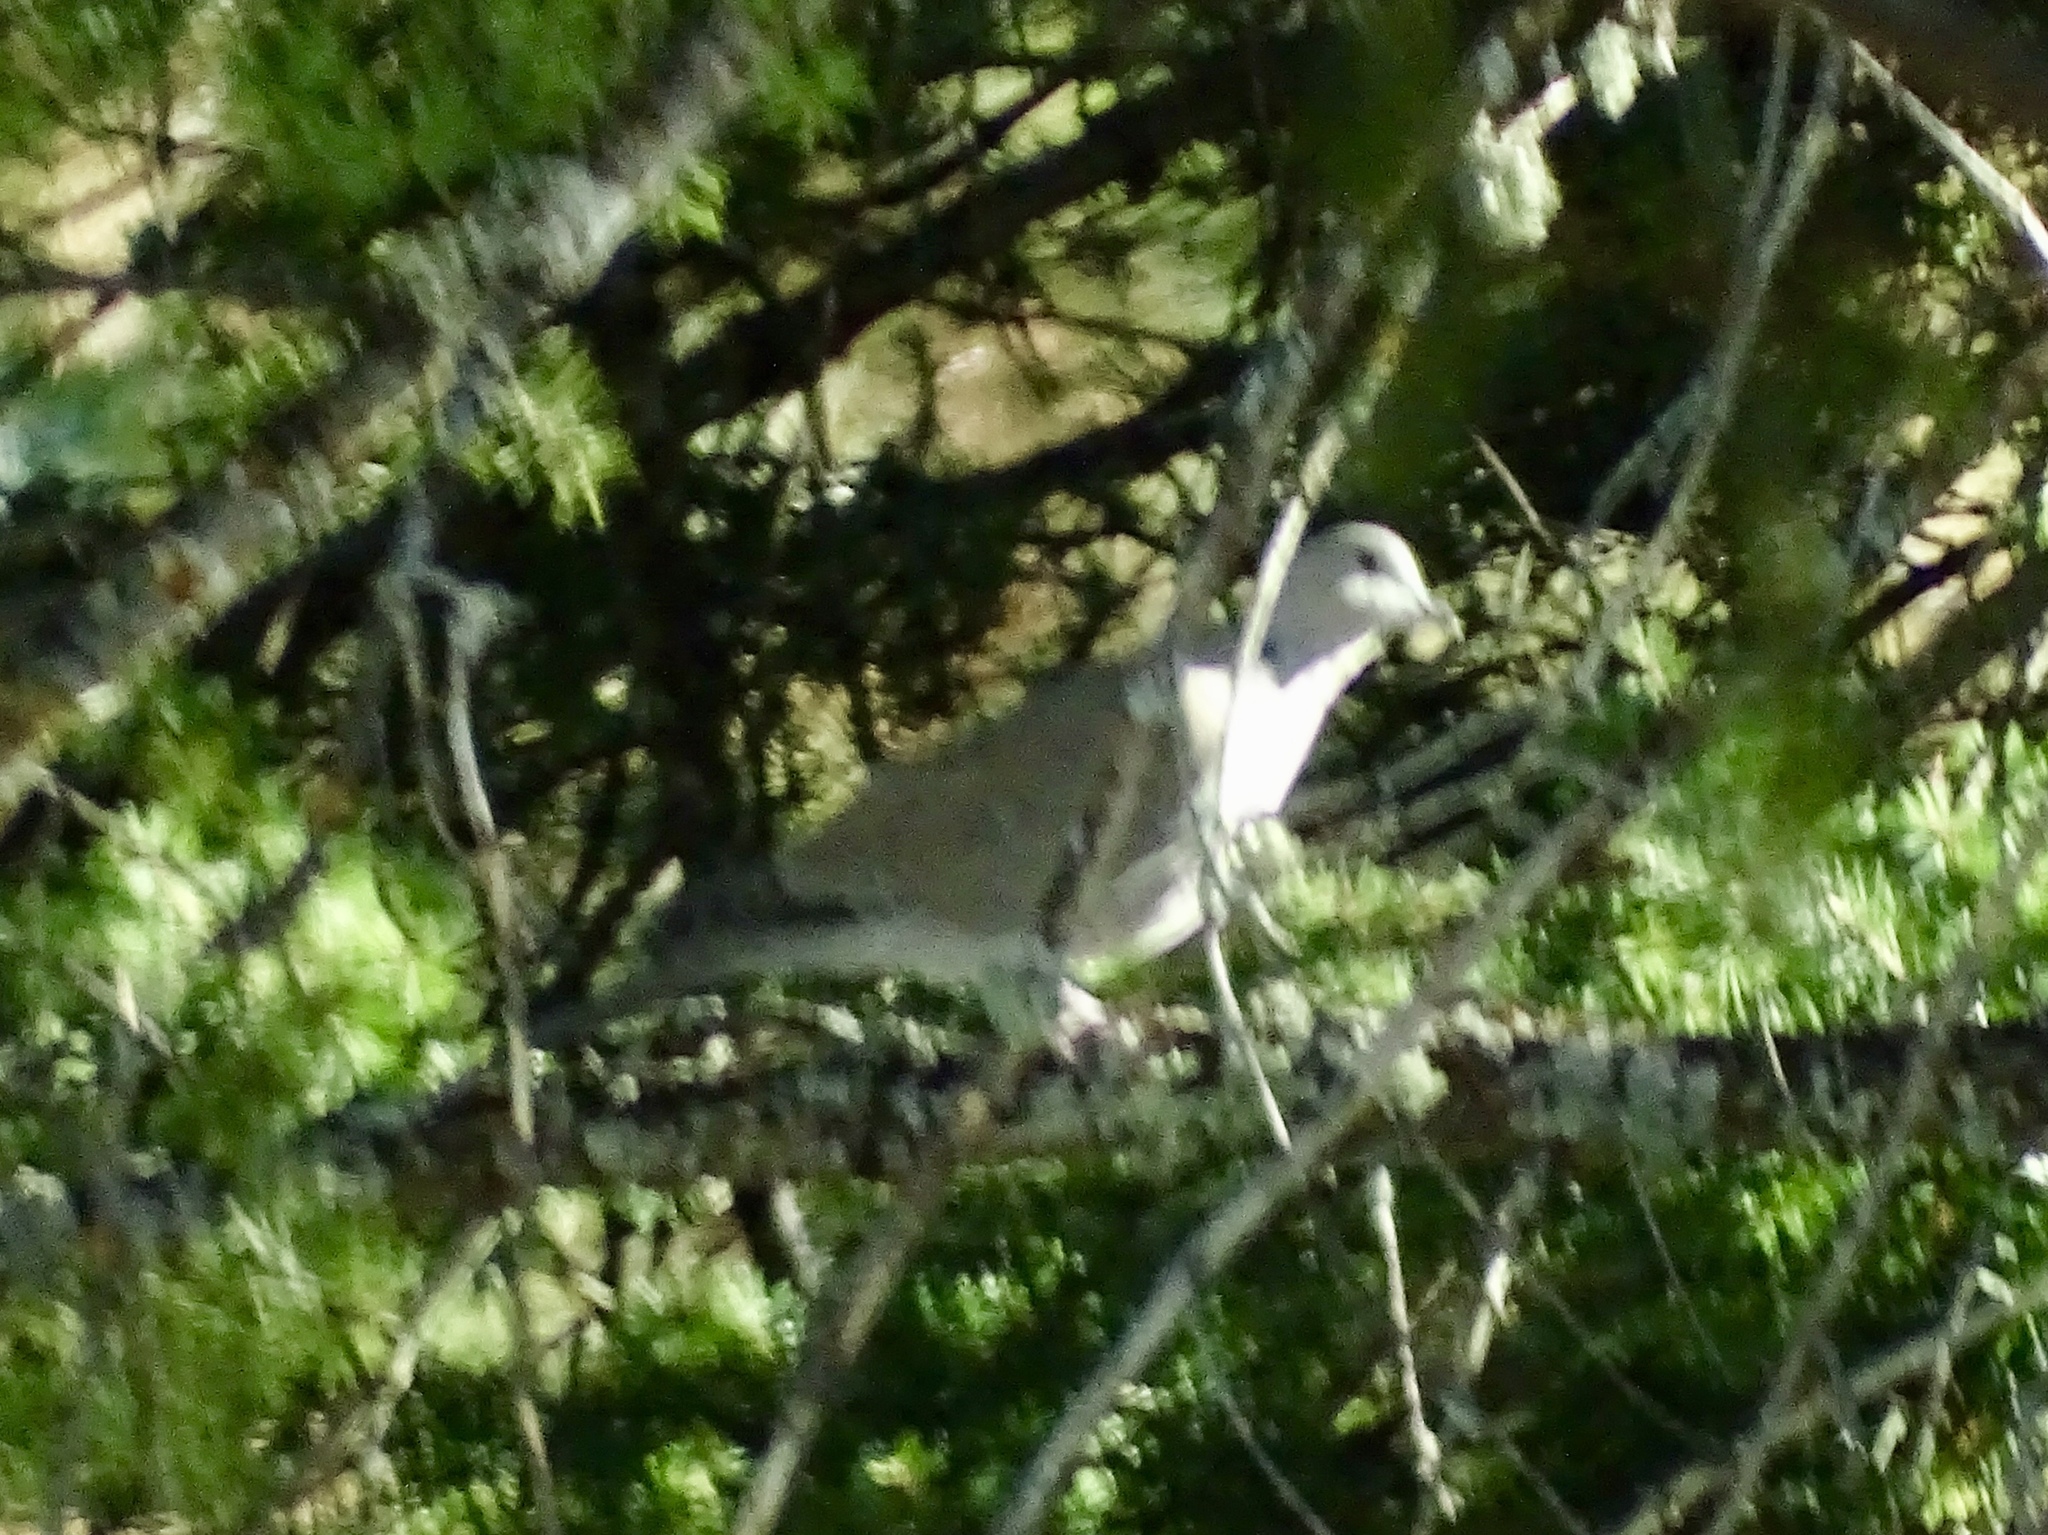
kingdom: Animalia
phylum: Chordata
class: Aves
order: Columbiformes
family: Columbidae
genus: Streptopelia
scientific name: Streptopelia decaocto
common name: Eurasian collared dove
